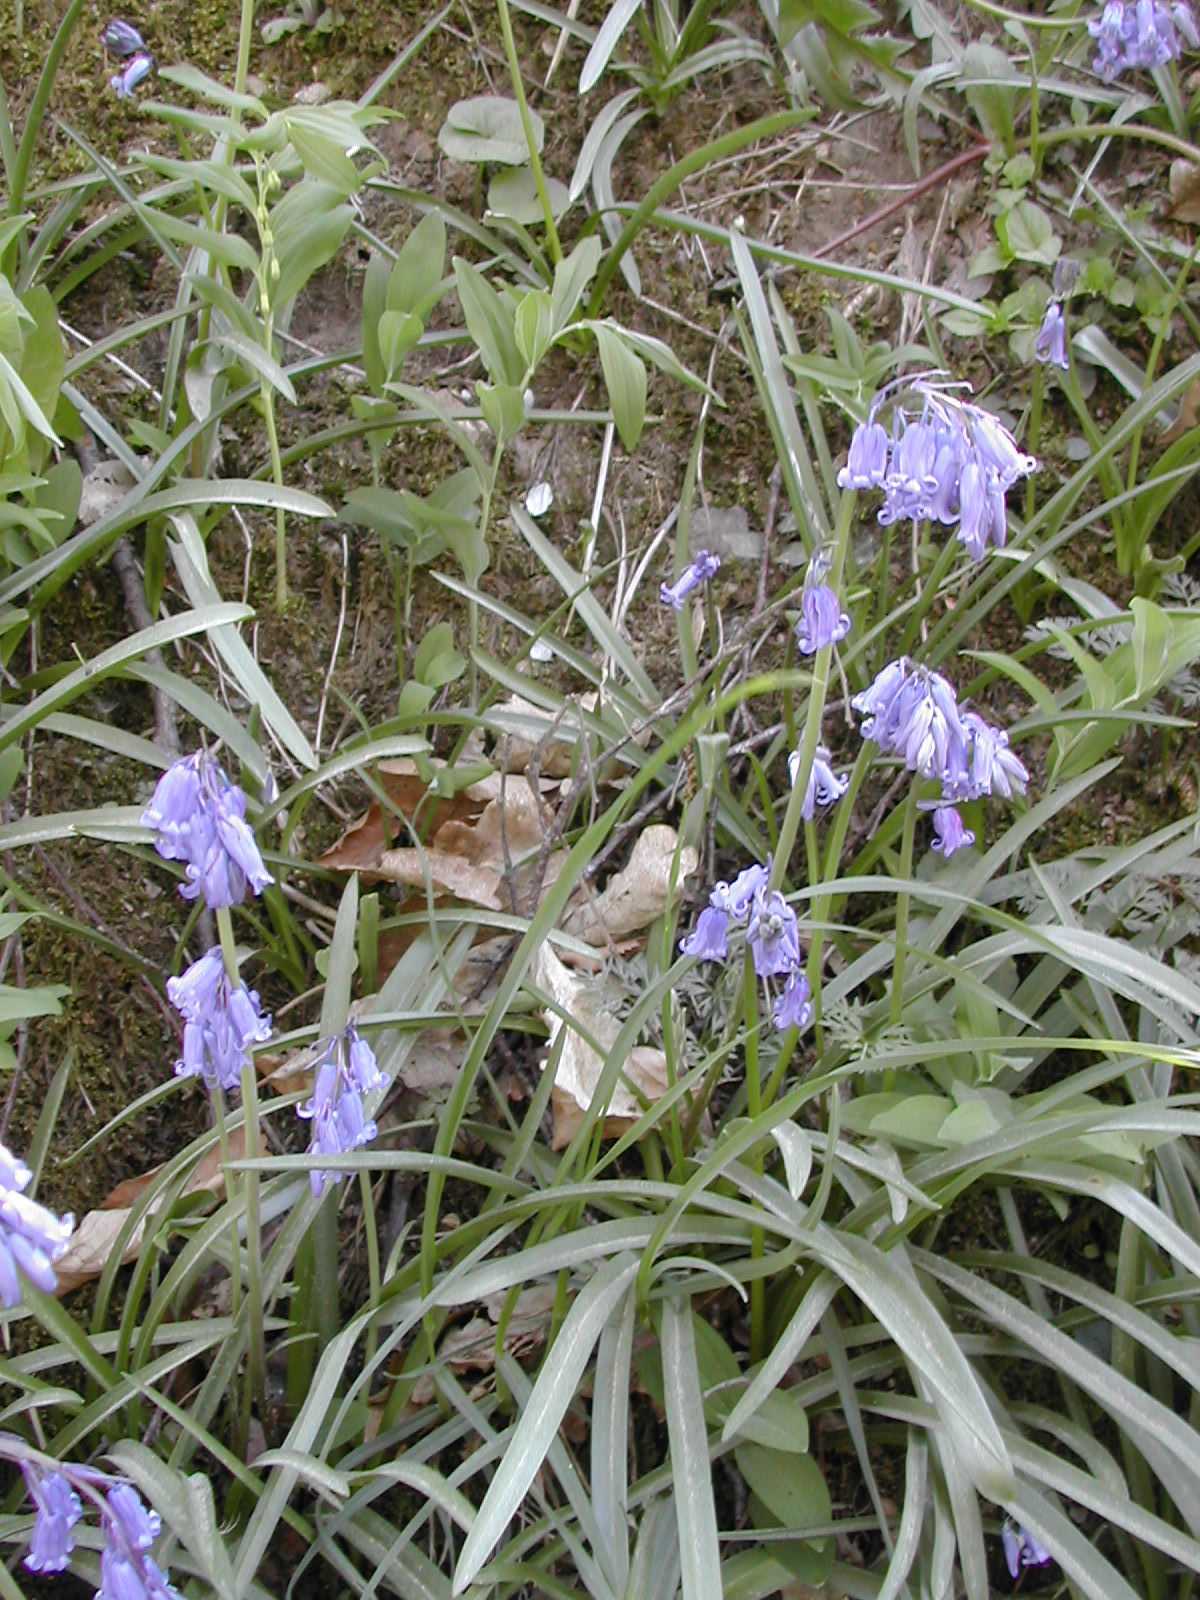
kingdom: Plantae
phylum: Tracheophyta
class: Liliopsida
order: Asparagales
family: Asparagaceae
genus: Hyacinthoides
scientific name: Hyacinthoides non-scripta
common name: Bluebell
